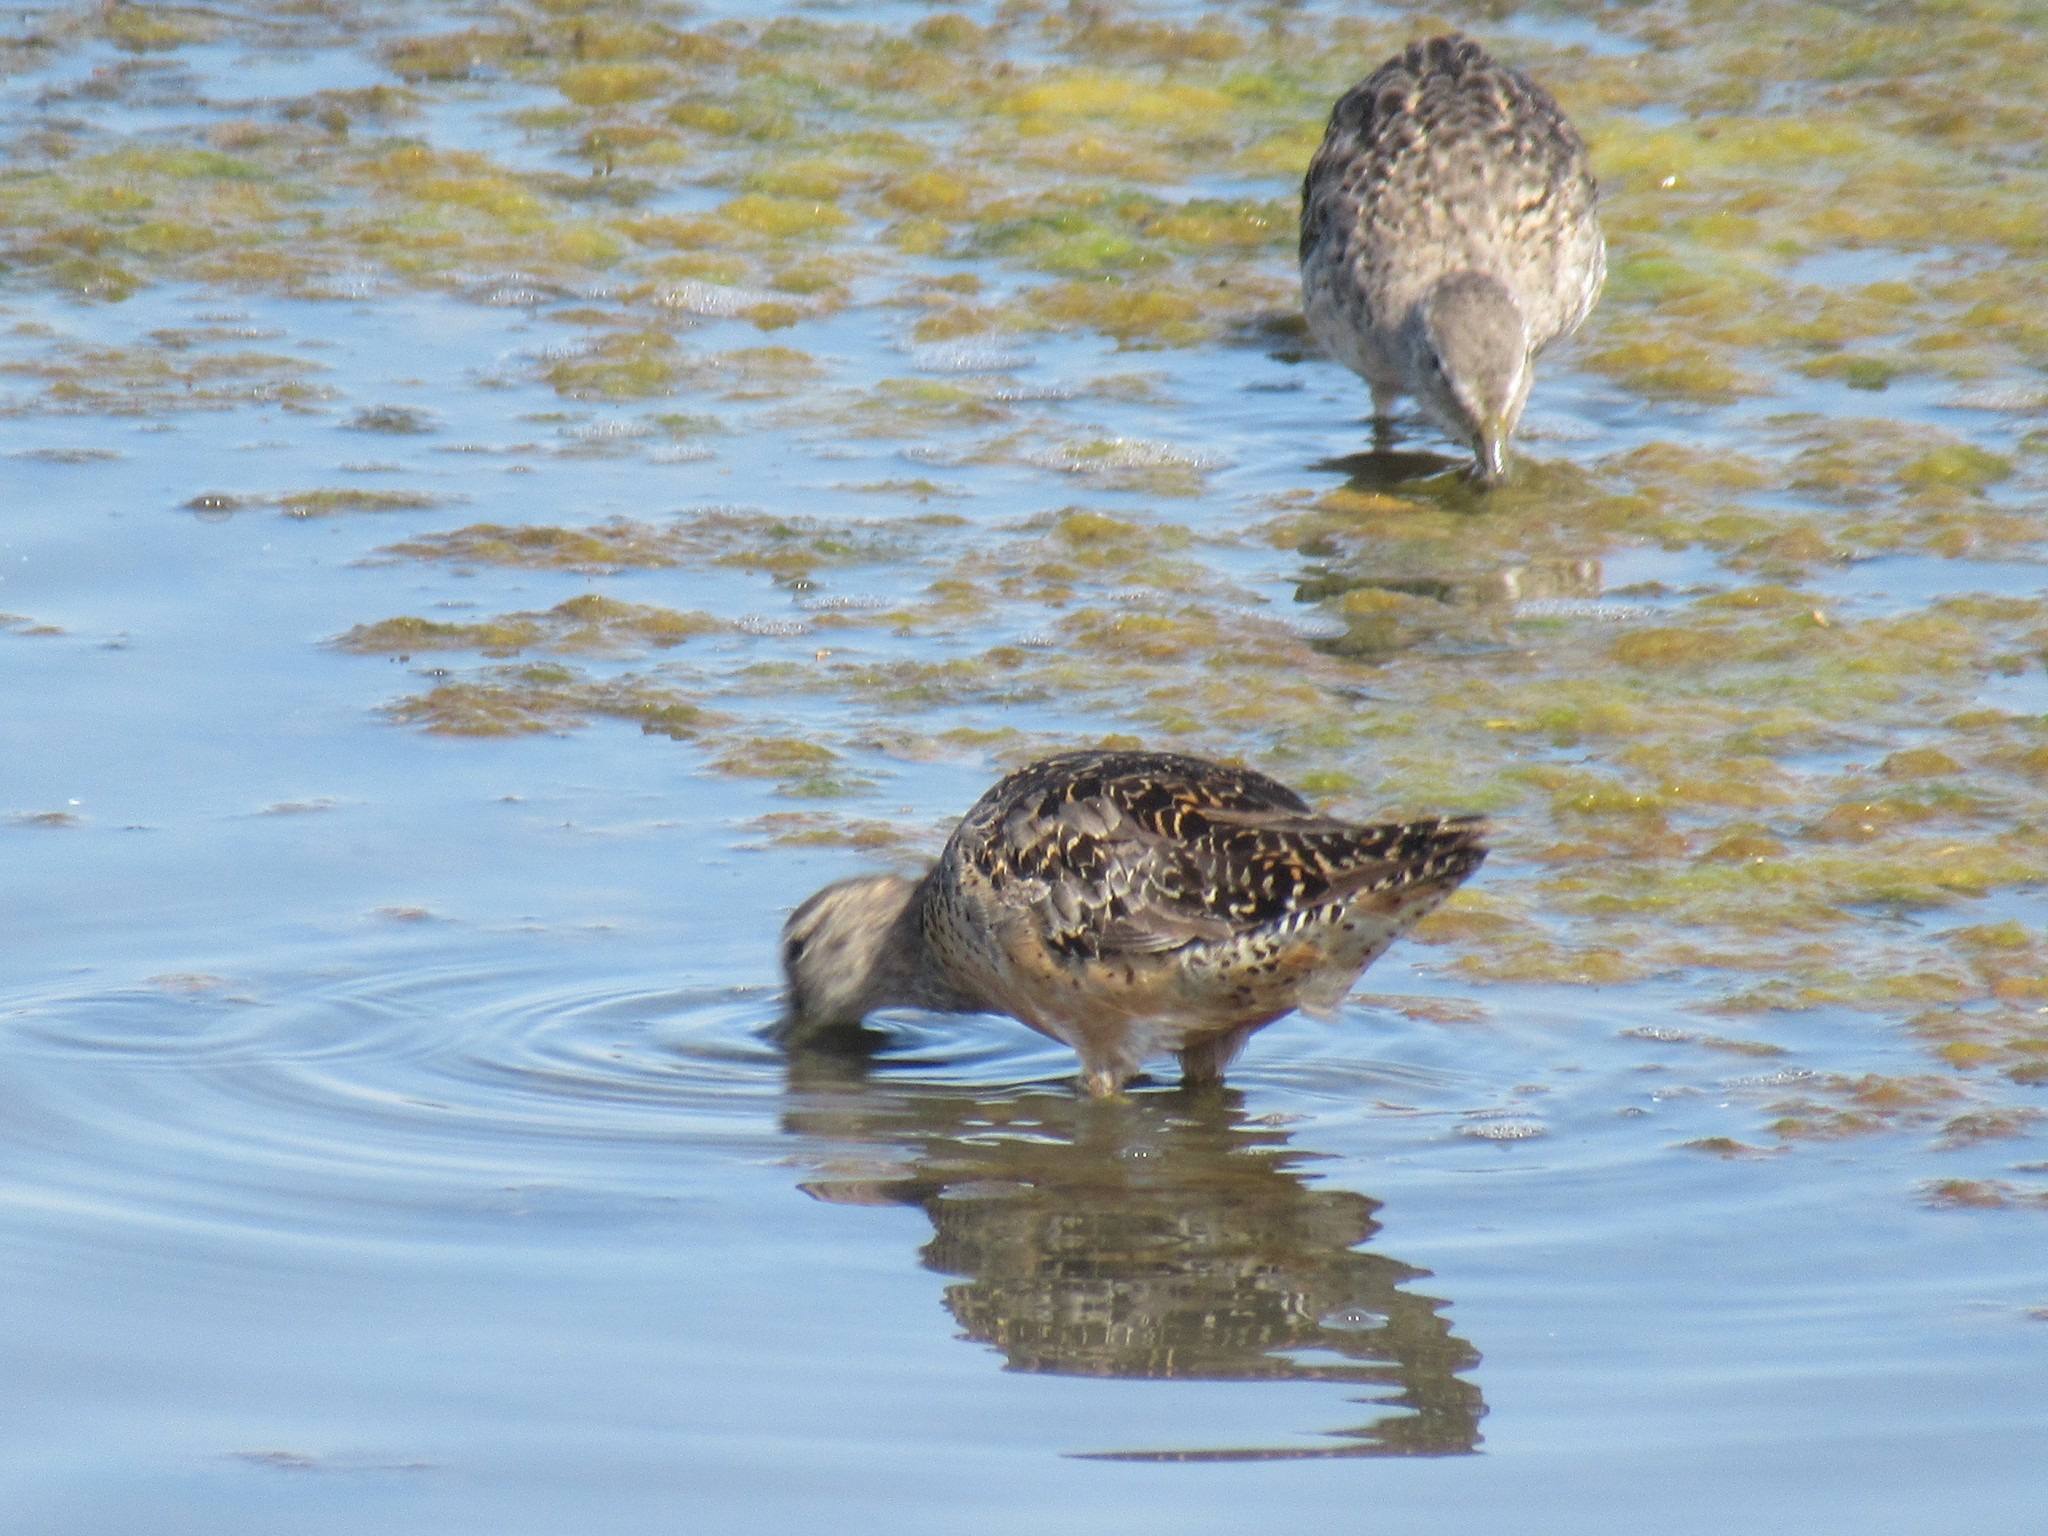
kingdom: Animalia
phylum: Chordata
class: Aves
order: Charadriiformes
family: Scolopacidae
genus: Limnodromus
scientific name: Limnodromus
